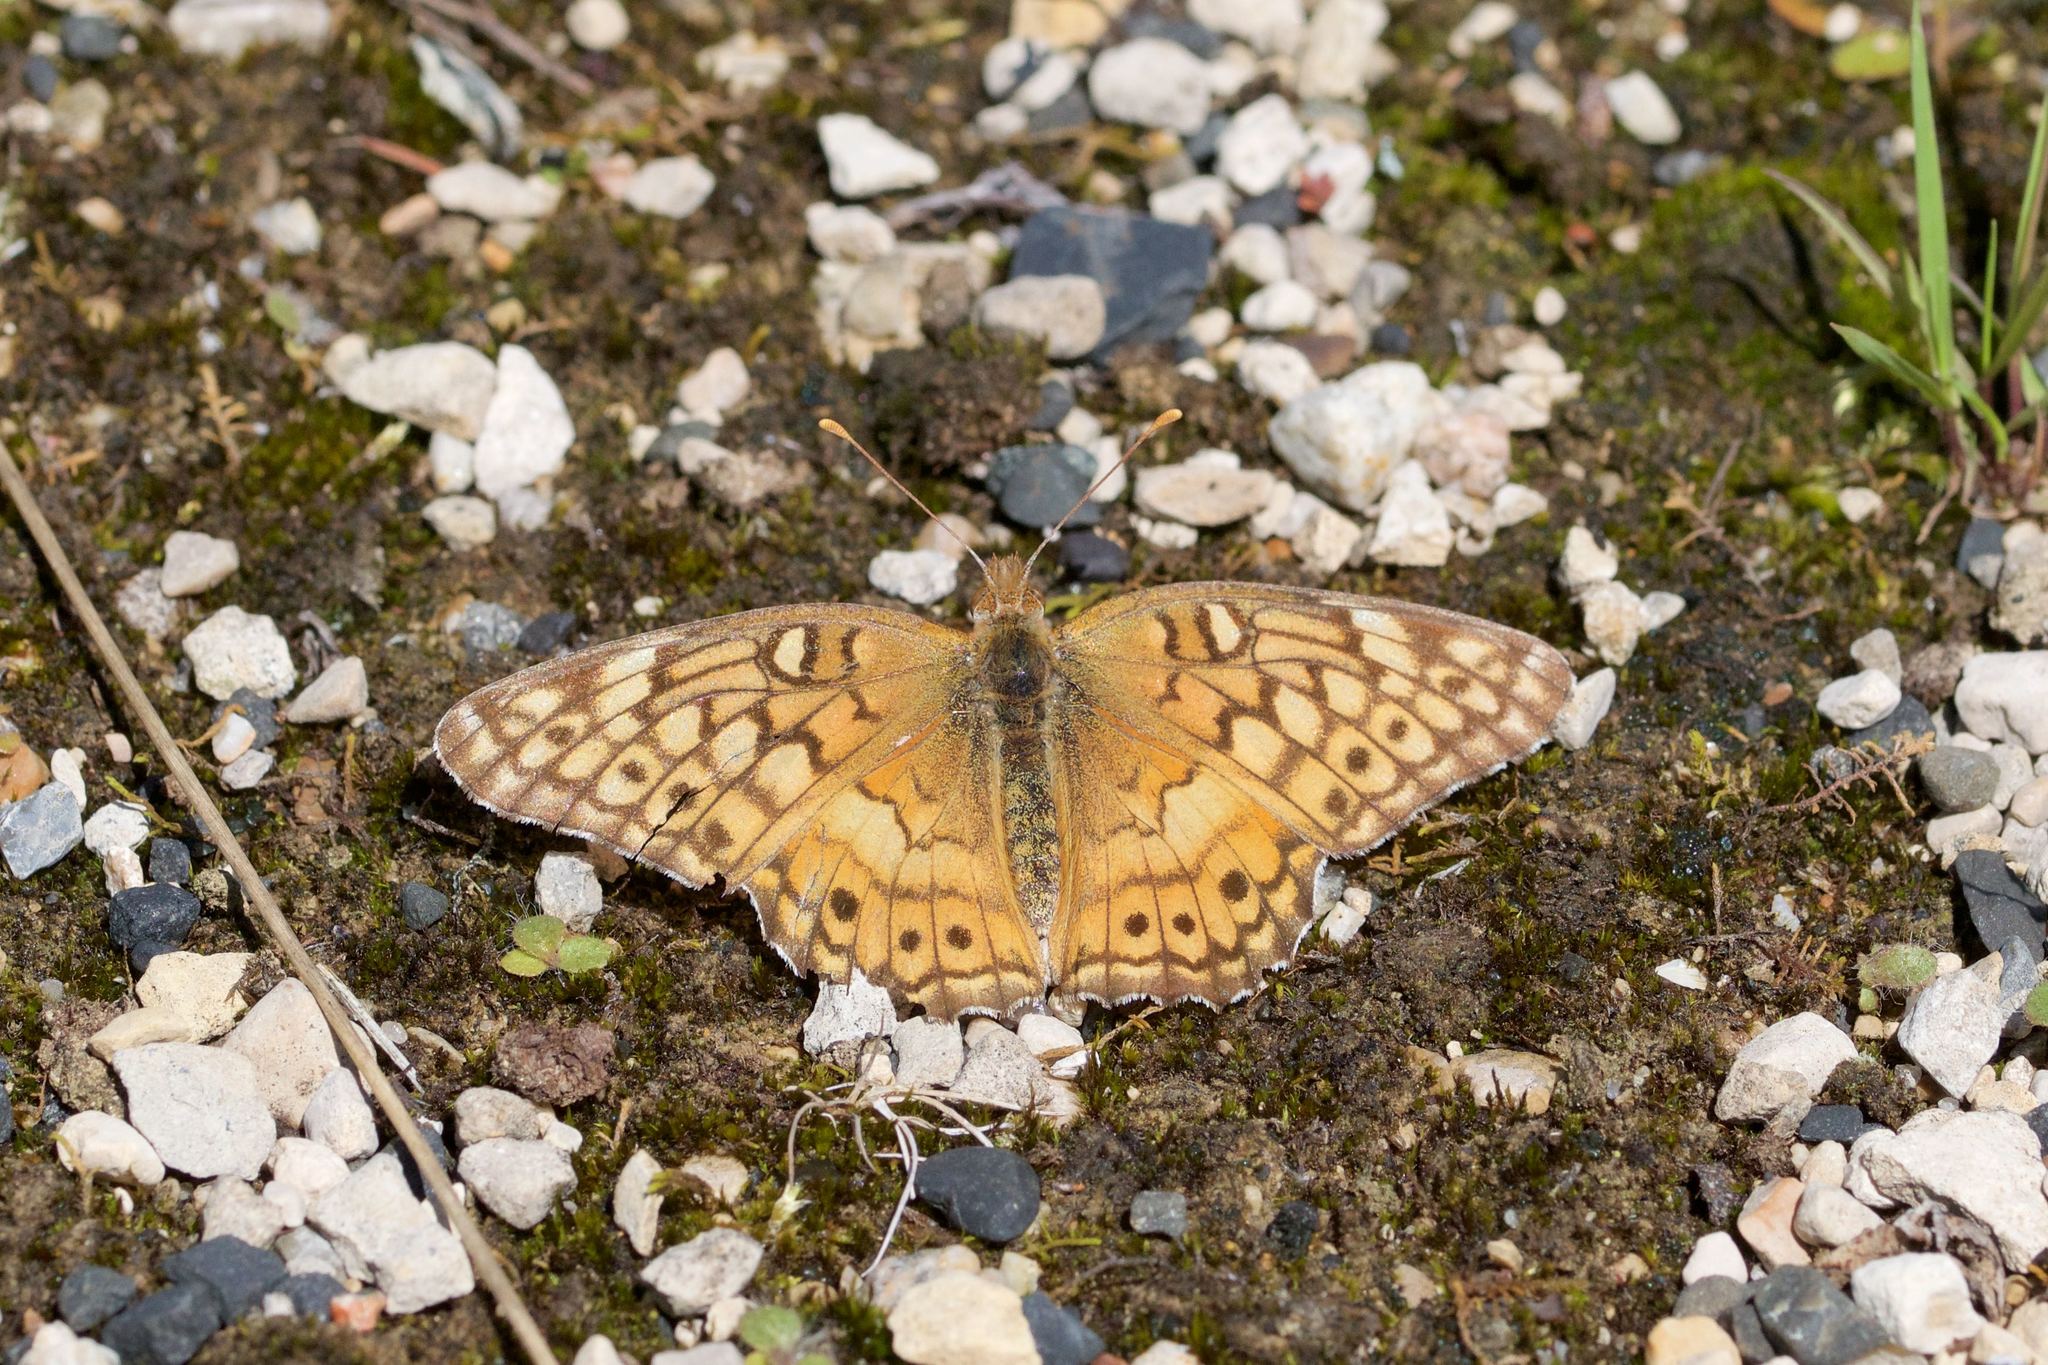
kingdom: Animalia
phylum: Arthropoda
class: Insecta
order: Lepidoptera
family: Nymphalidae
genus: Euptoieta
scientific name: Euptoieta claudia
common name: Variegated fritillary
